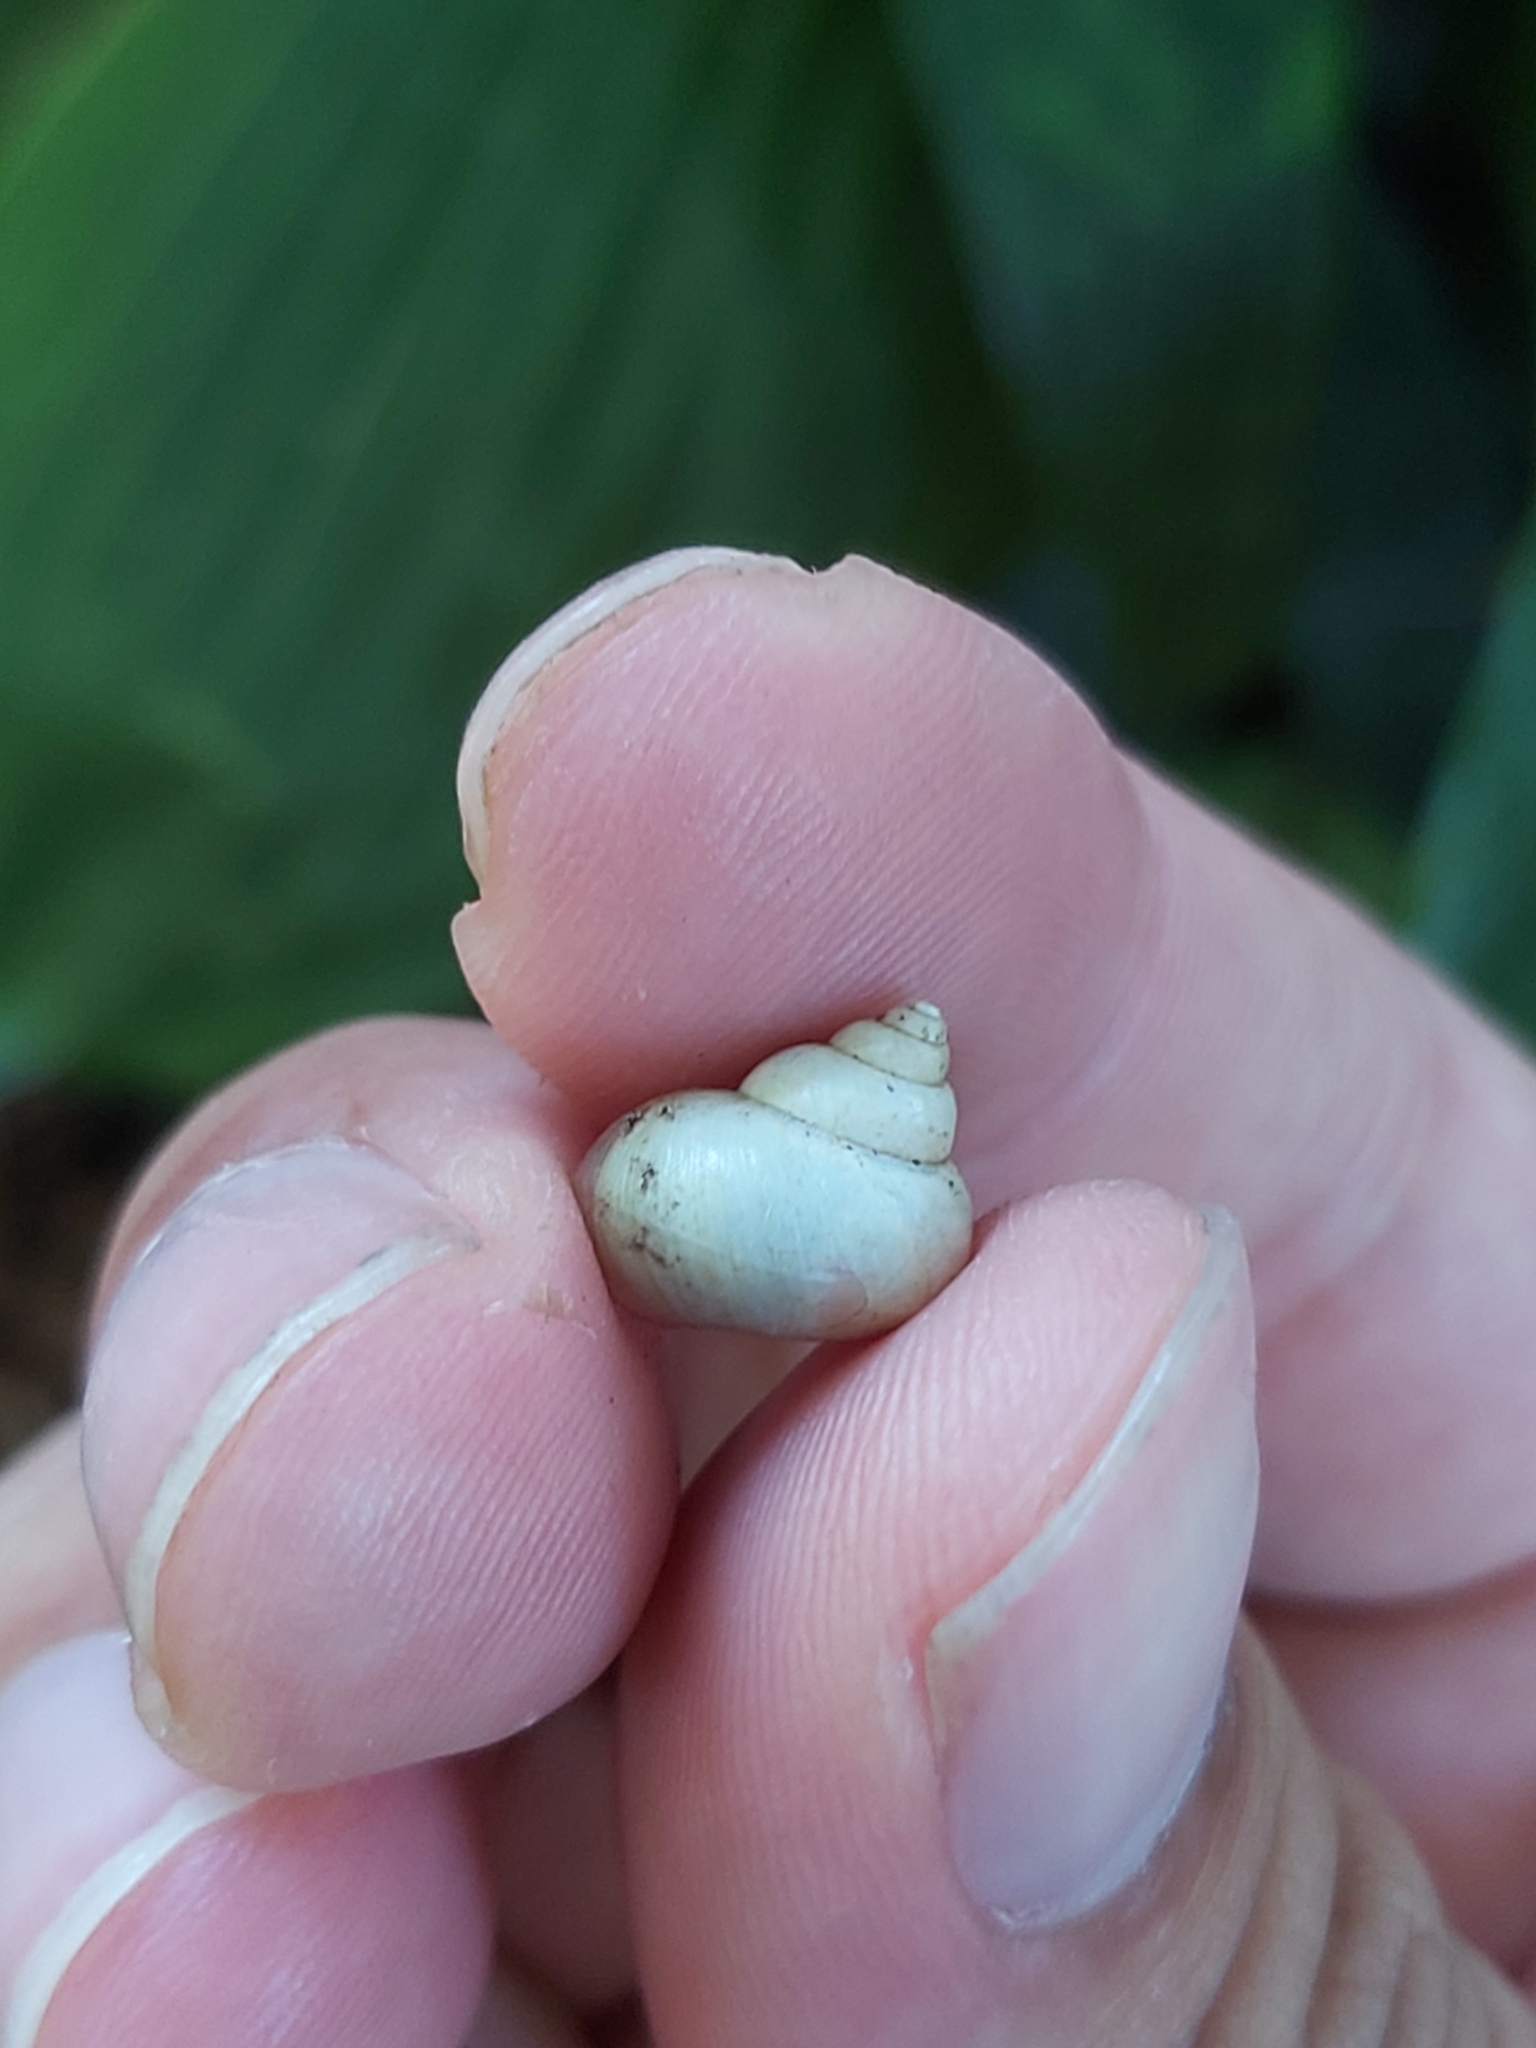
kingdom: Animalia
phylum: Mollusca
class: Gastropoda
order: Architaenioglossa
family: Cyclophoridae
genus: Leptopoma
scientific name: Leptopoma perlucidum
